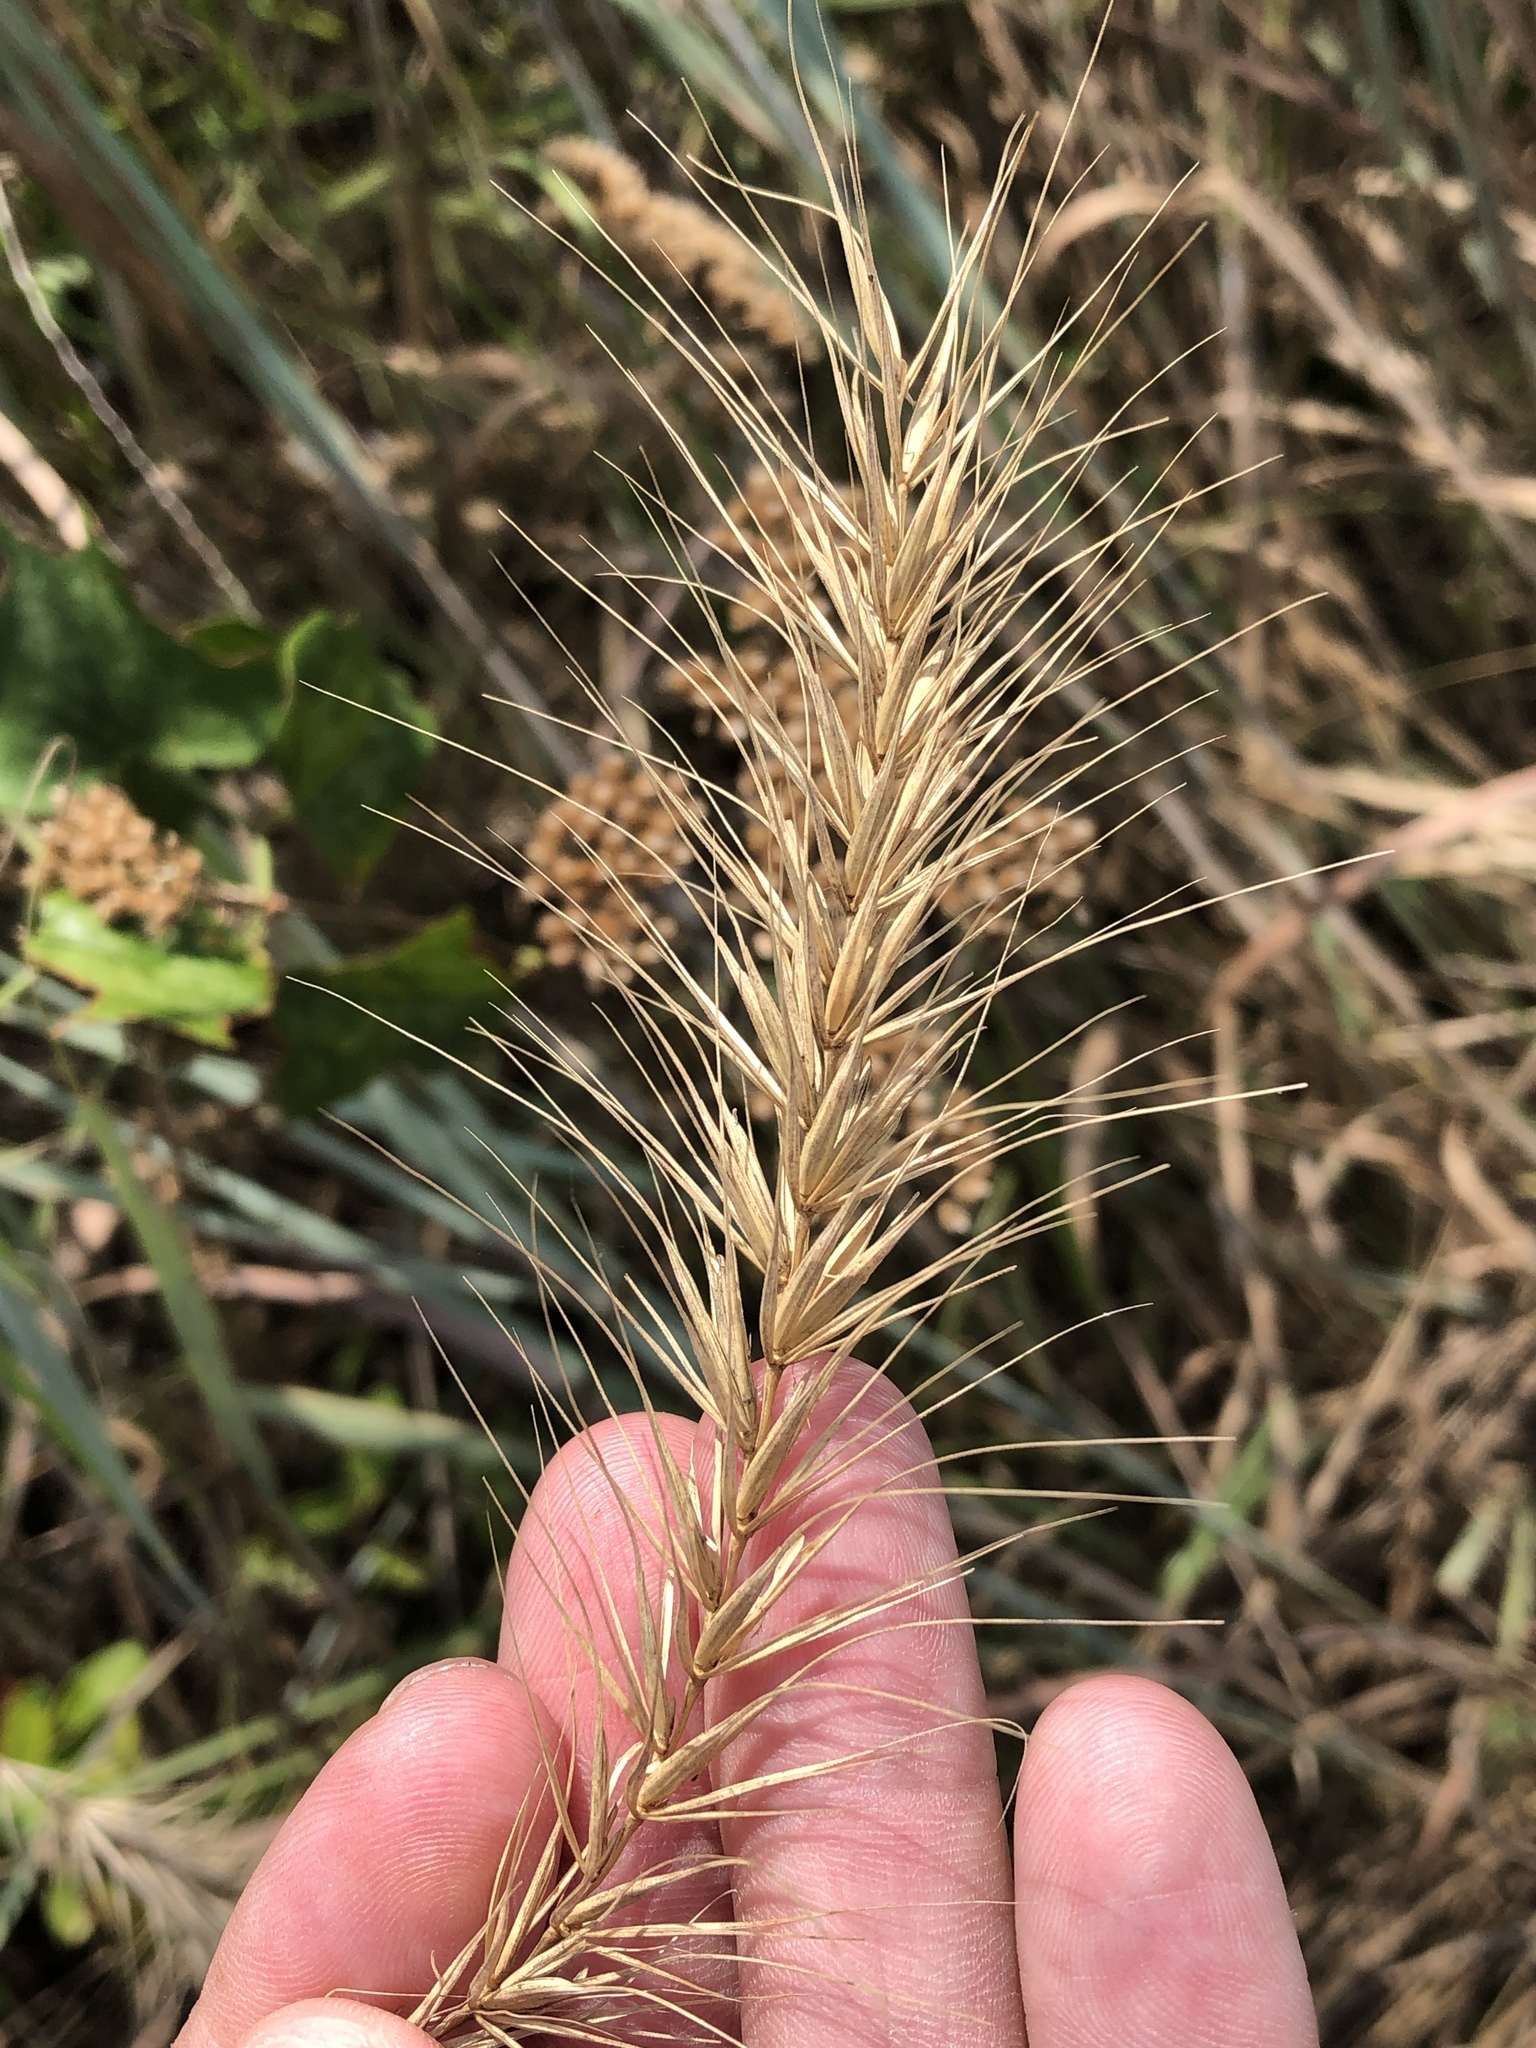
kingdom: Plantae
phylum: Tracheophyta
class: Liliopsida
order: Poales
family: Poaceae
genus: Elymus
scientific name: Elymus canadensis
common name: Canada wild rye
